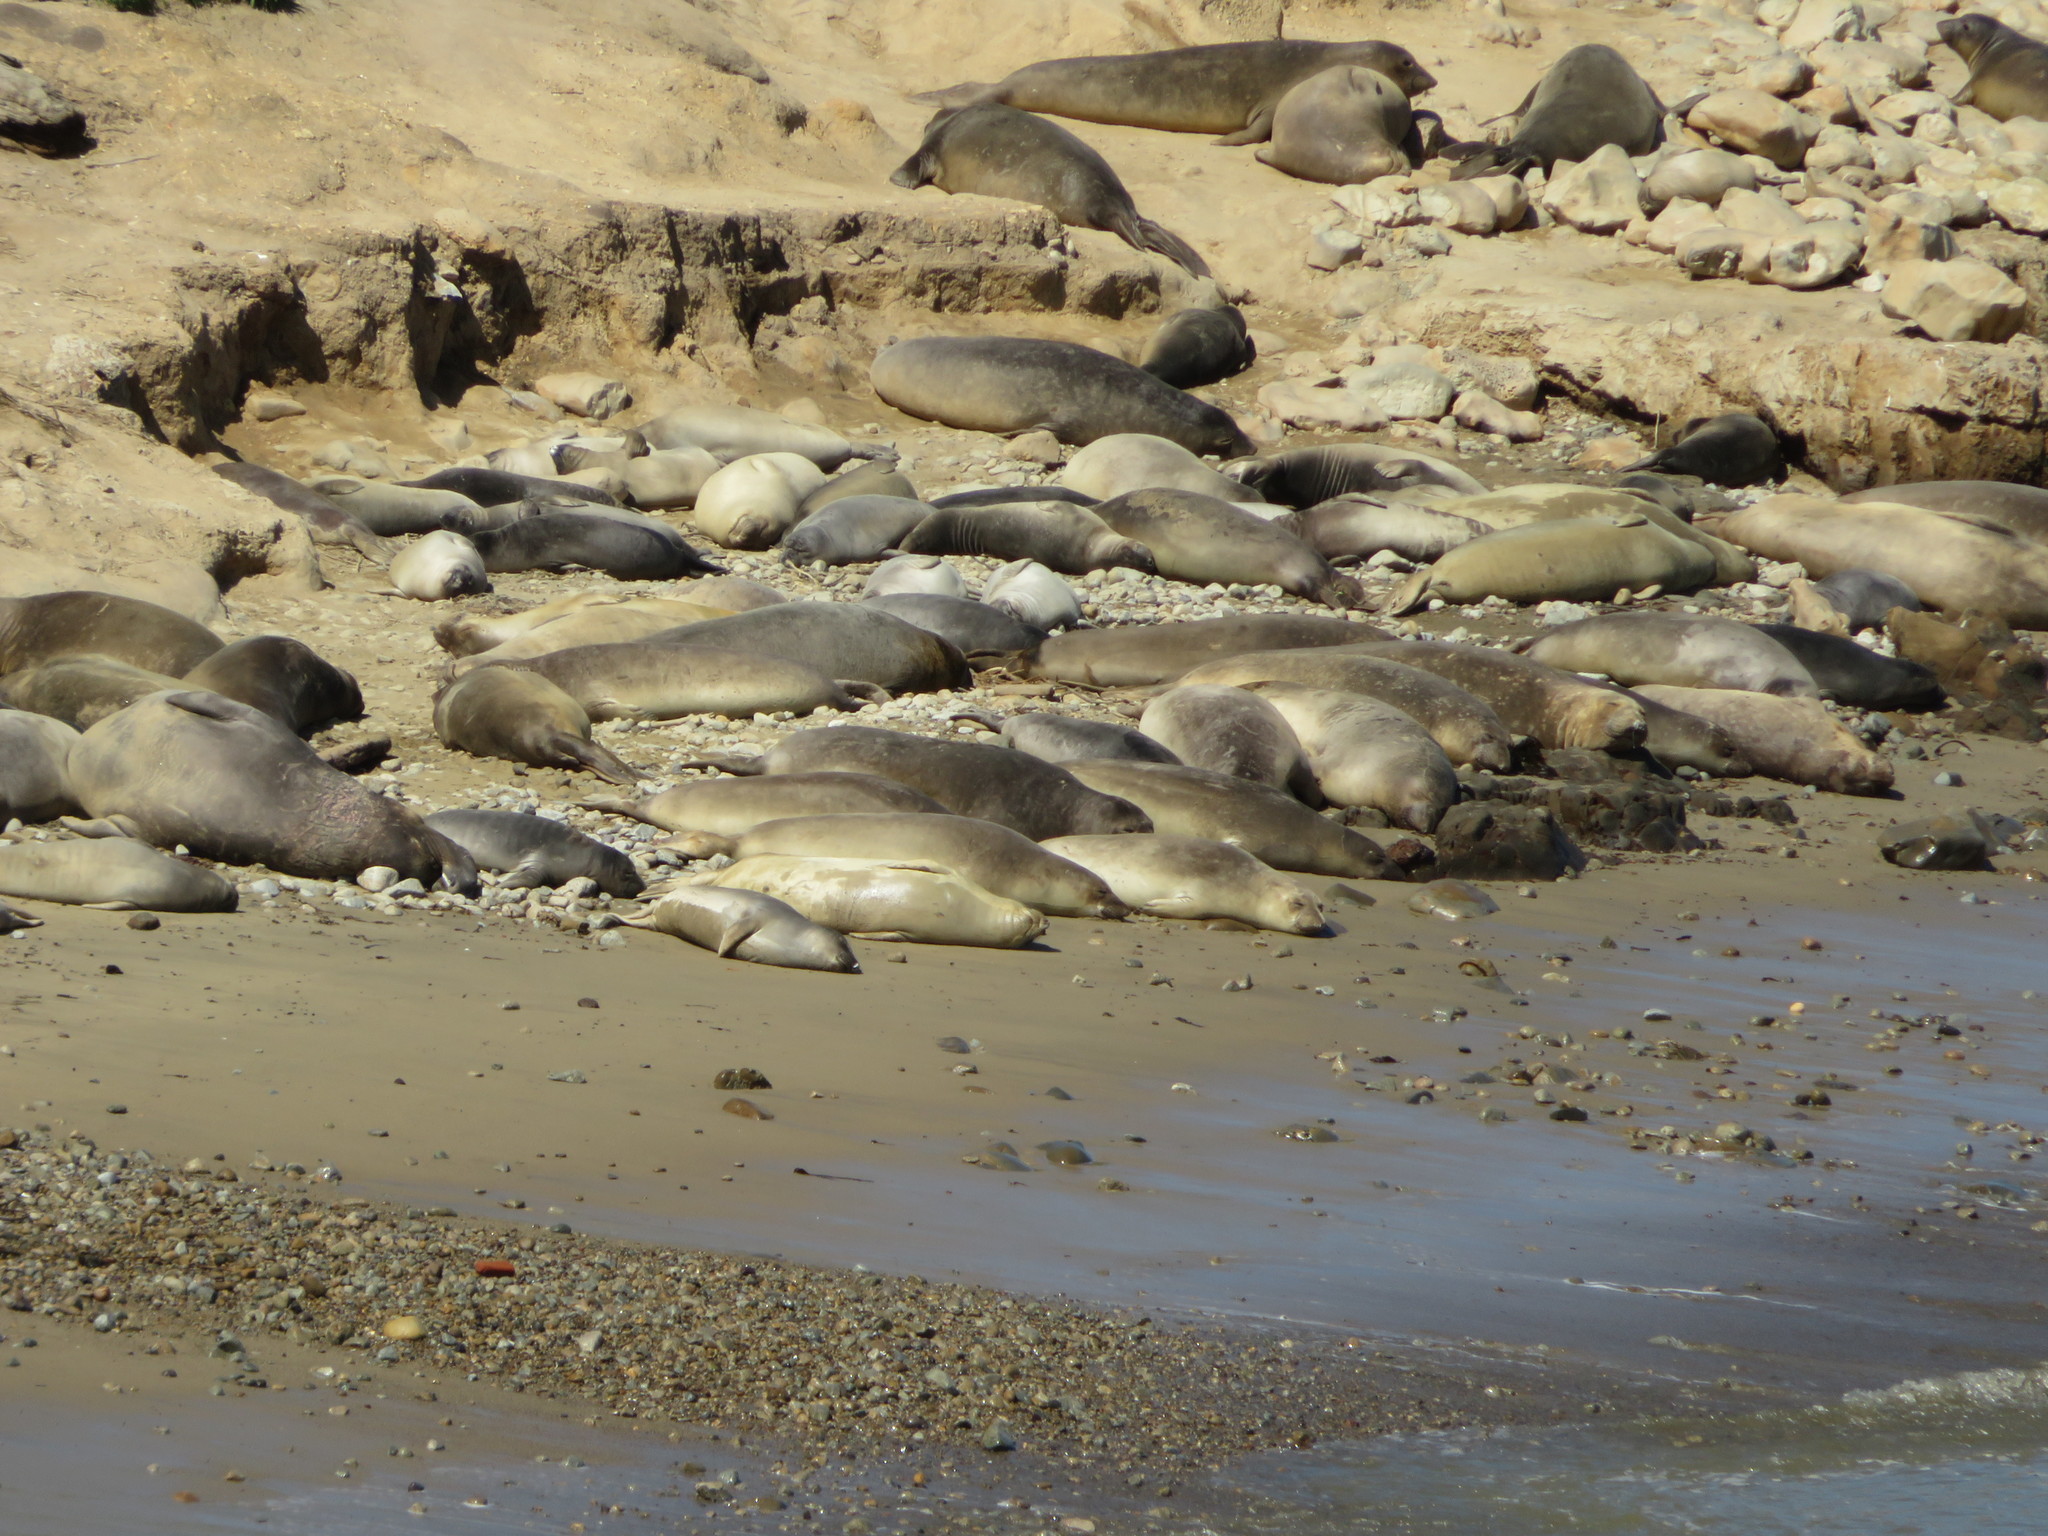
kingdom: Animalia
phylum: Chordata
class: Mammalia
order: Carnivora
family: Phocidae
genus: Mirounga
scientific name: Mirounga angustirostris
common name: Northern elephant seal
